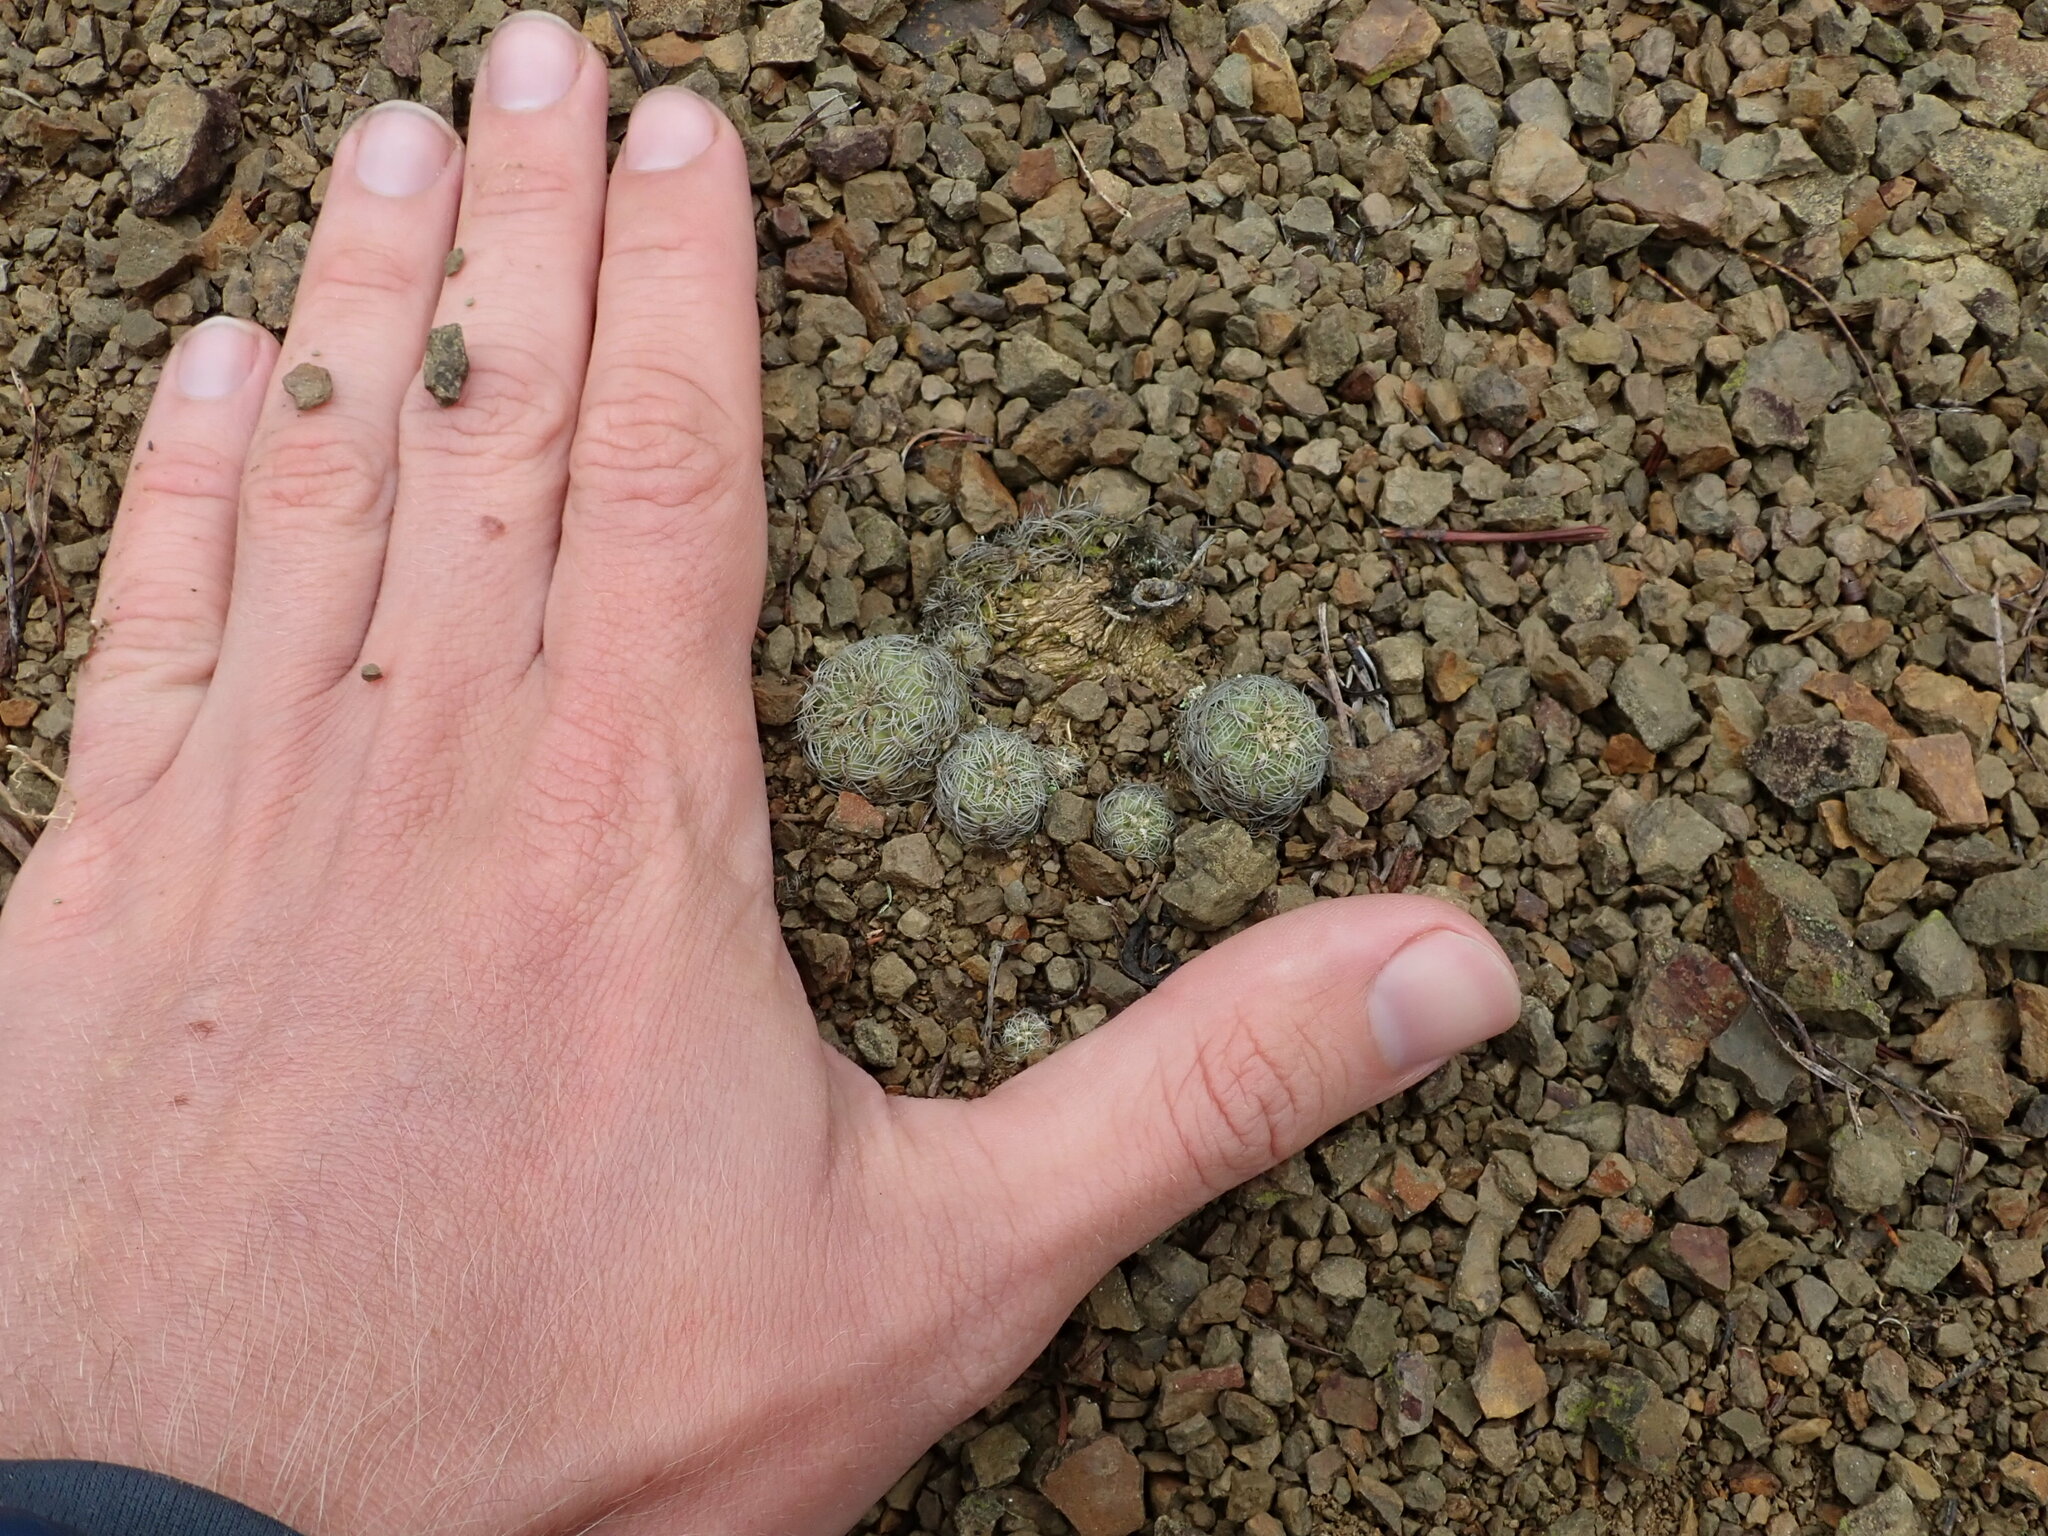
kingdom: Plantae
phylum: Tracheophyta
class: Magnoliopsida
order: Caryophyllales
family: Cactaceae
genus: Weingartia
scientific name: Weingartia canigueralii
